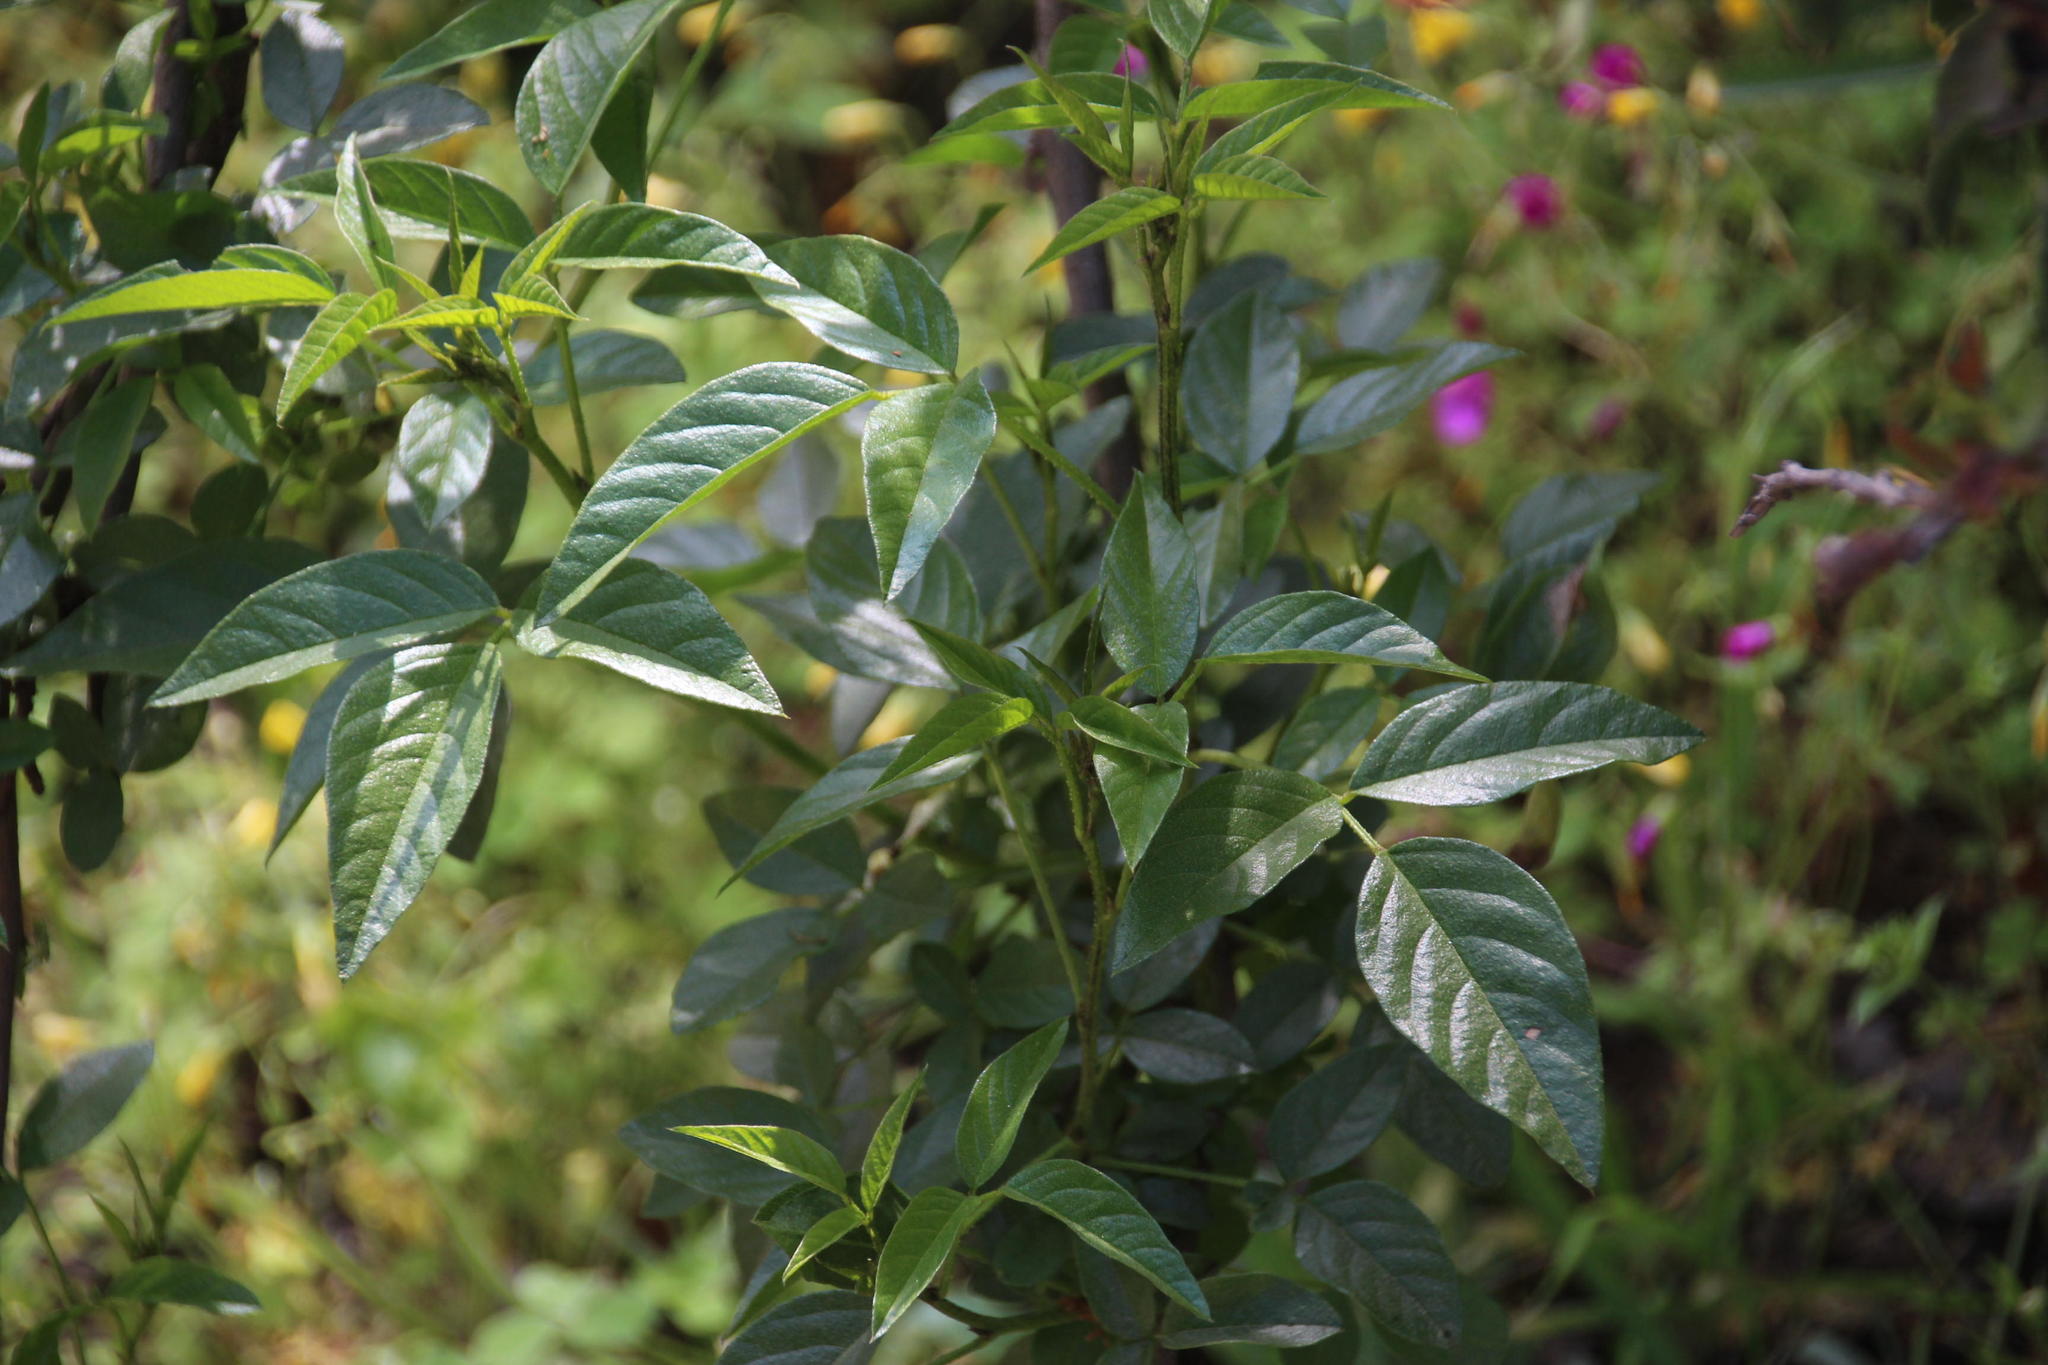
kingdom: Plantae
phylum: Tracheophyta
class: Magnoliopsida
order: Fabales
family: Fabaceae
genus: Psoralea
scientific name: Psoralea Otholobium glandulosum
